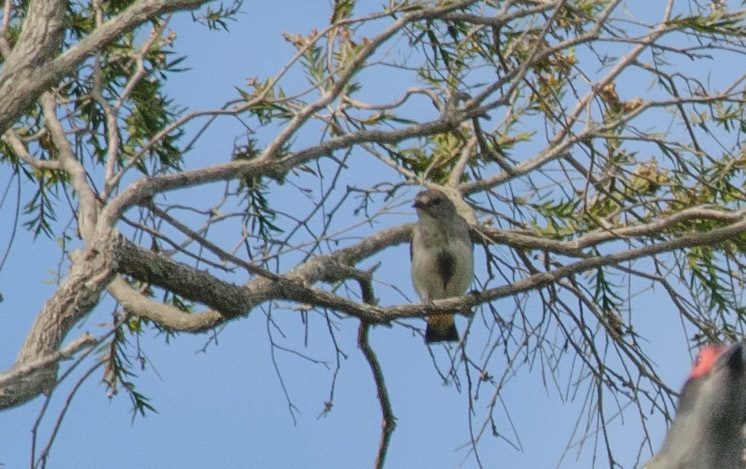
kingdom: Animalia
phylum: Chordata
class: Aves
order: Passeriformes
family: Dicaeidae
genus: Dicaeum
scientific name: Dicaeum hirundinaceum
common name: Mistletoebird
